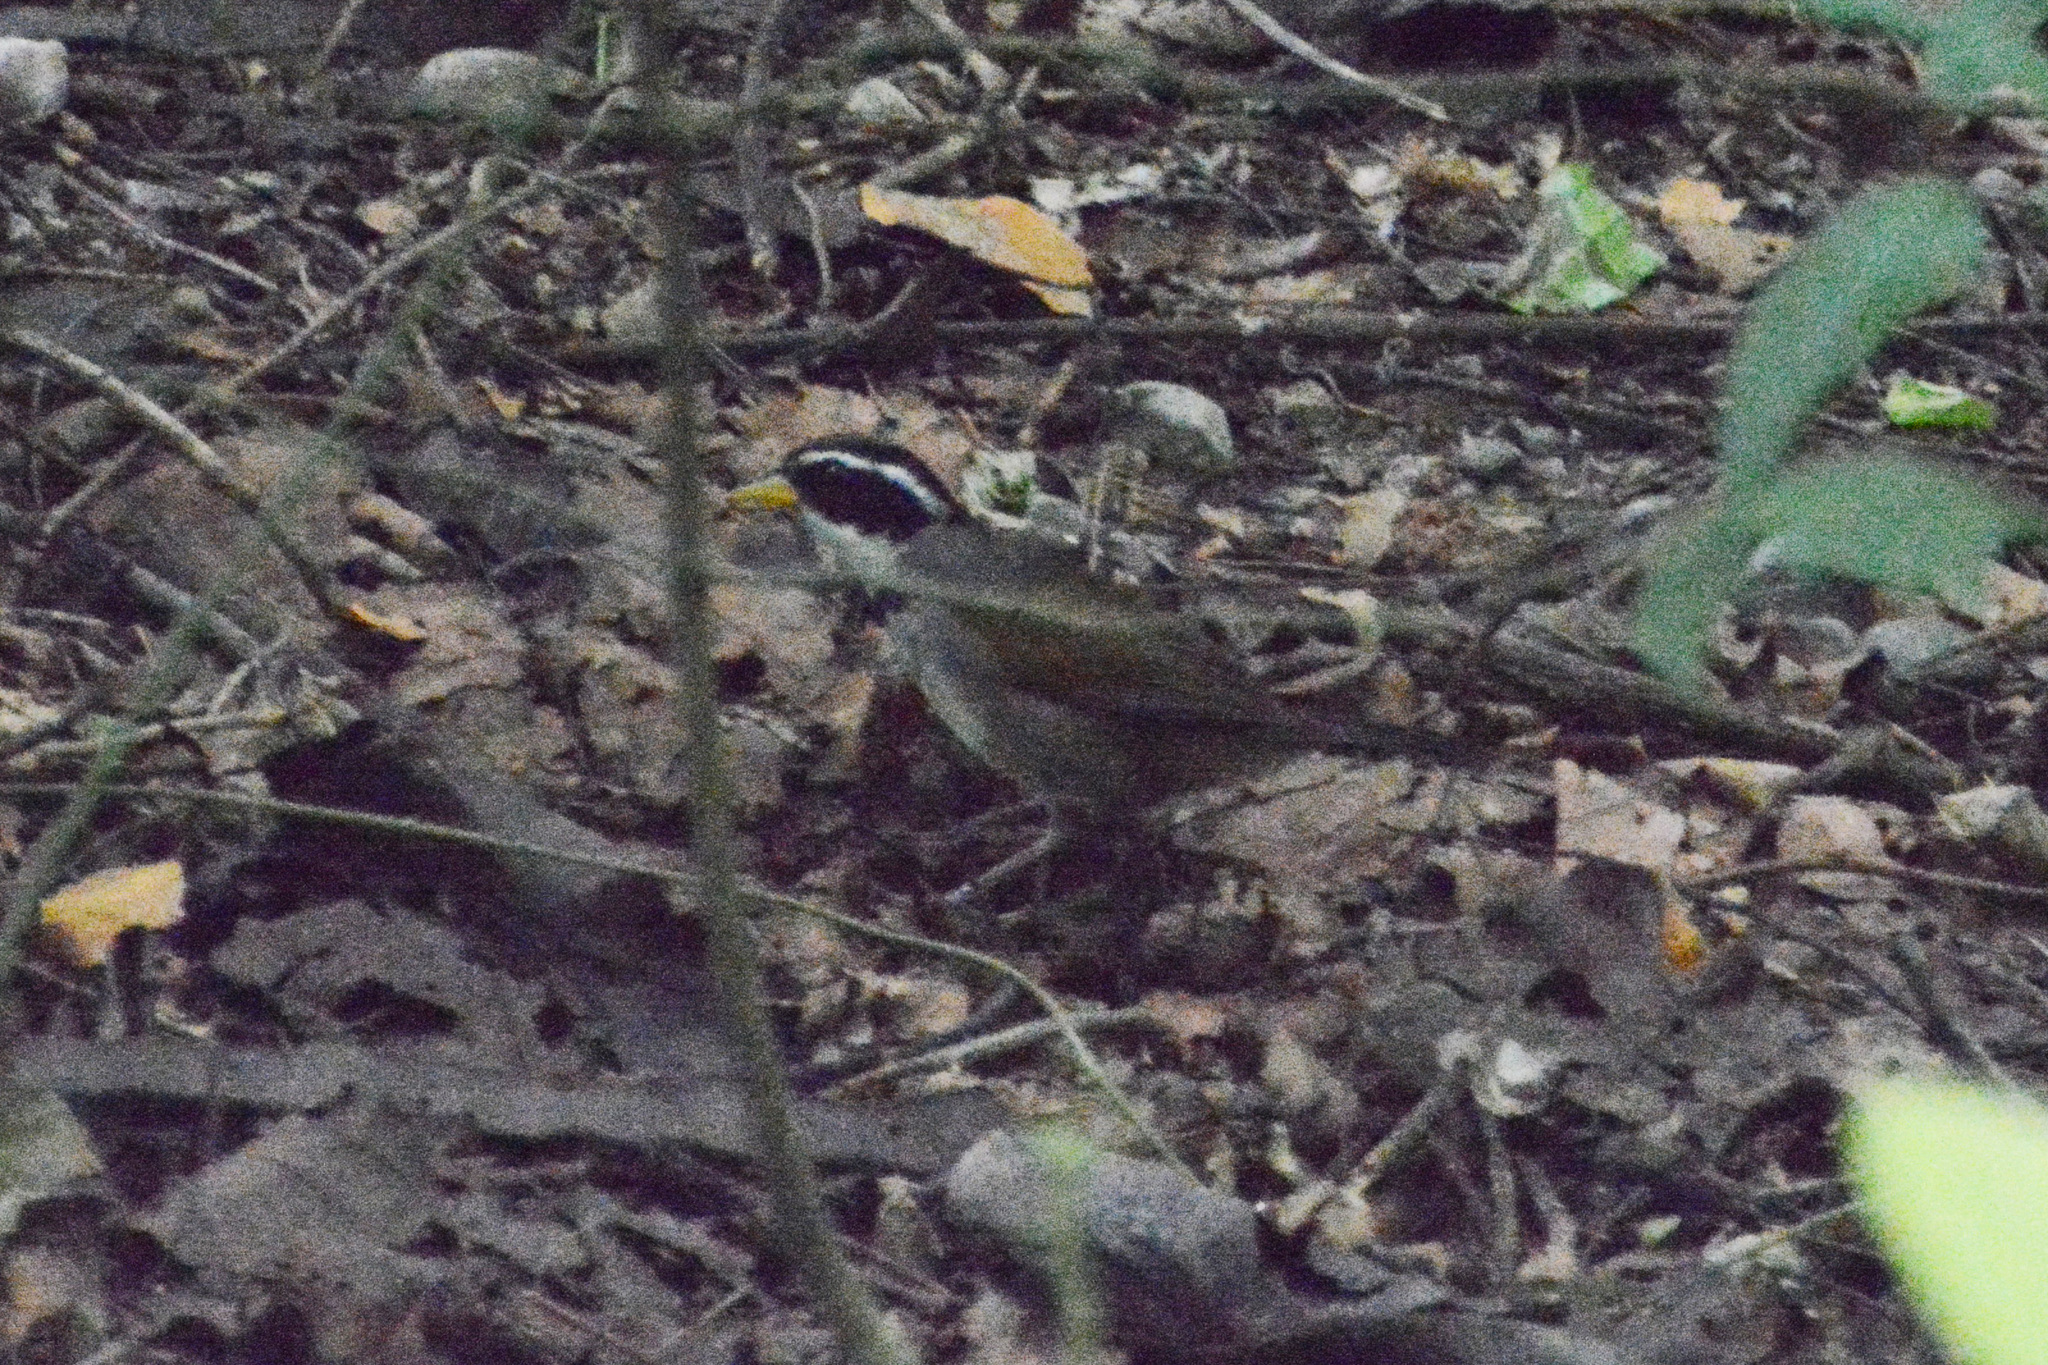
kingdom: Animalia
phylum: Chordata
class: Aves
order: Passeriformes
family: Passerellidae
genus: Arremon
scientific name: Arremon dorbignii
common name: Moss-backed sparrow
